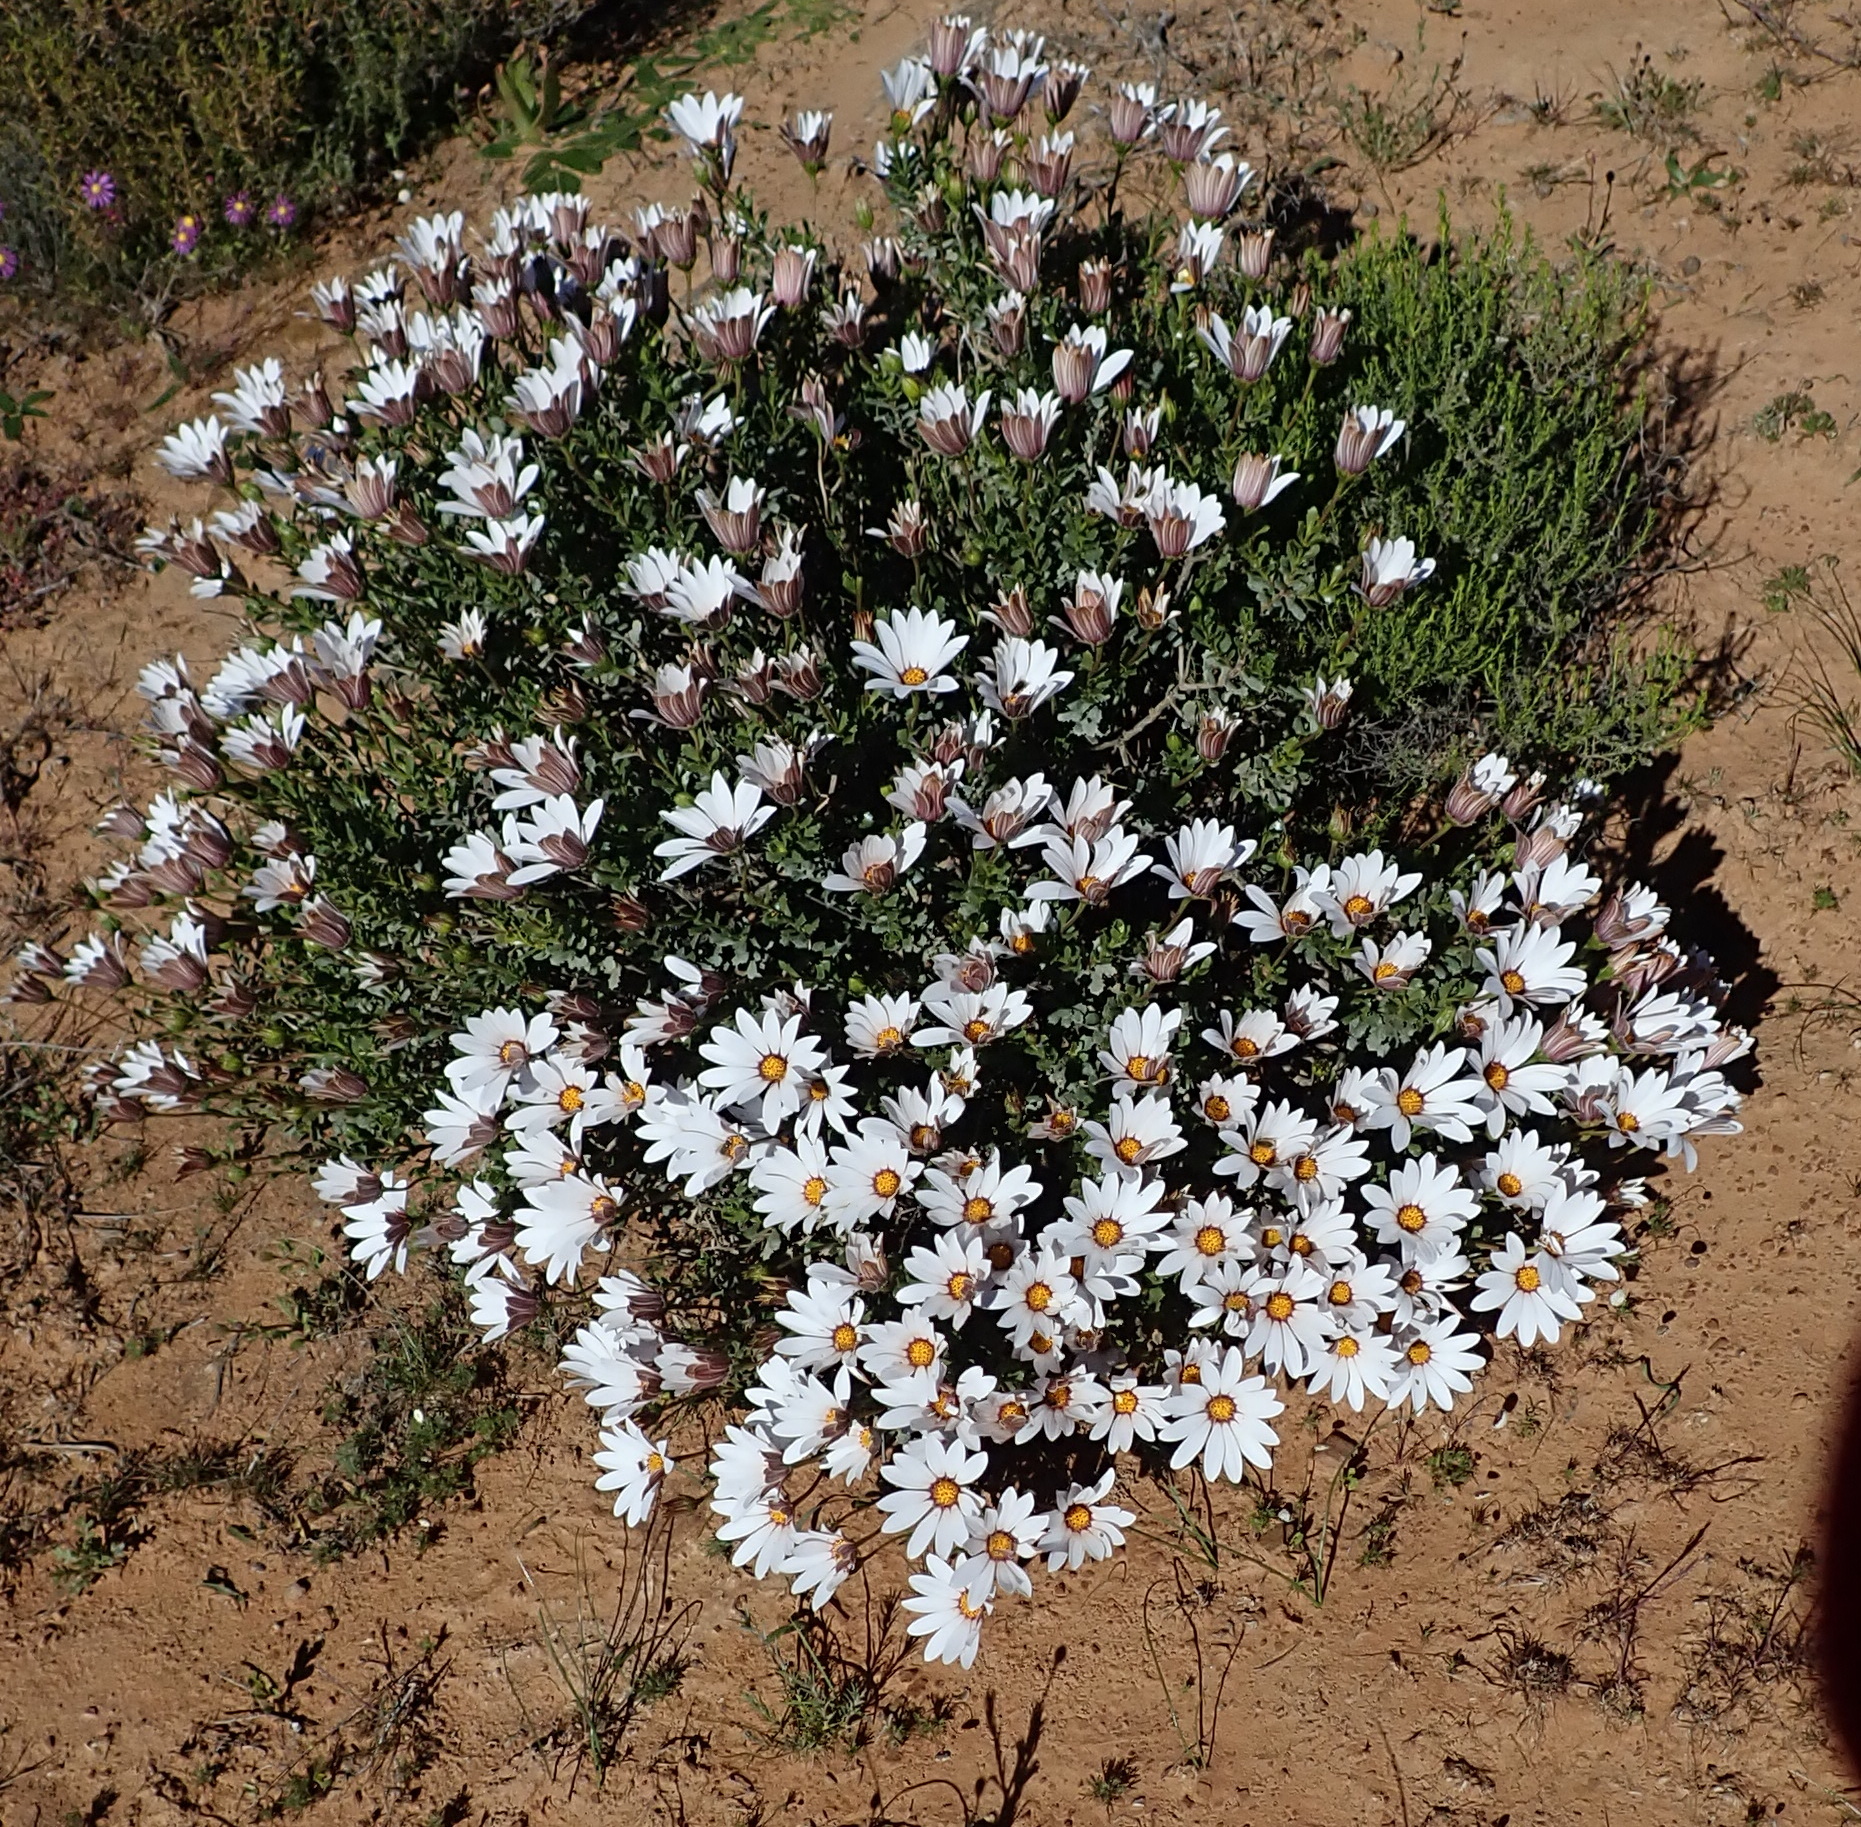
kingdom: Plantae
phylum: Tracheophyta
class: Magnoliopsida
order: Asterales
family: Asteraceae
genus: Dimorphotheca
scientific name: Dimorphotheca cuneata
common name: Daisy
